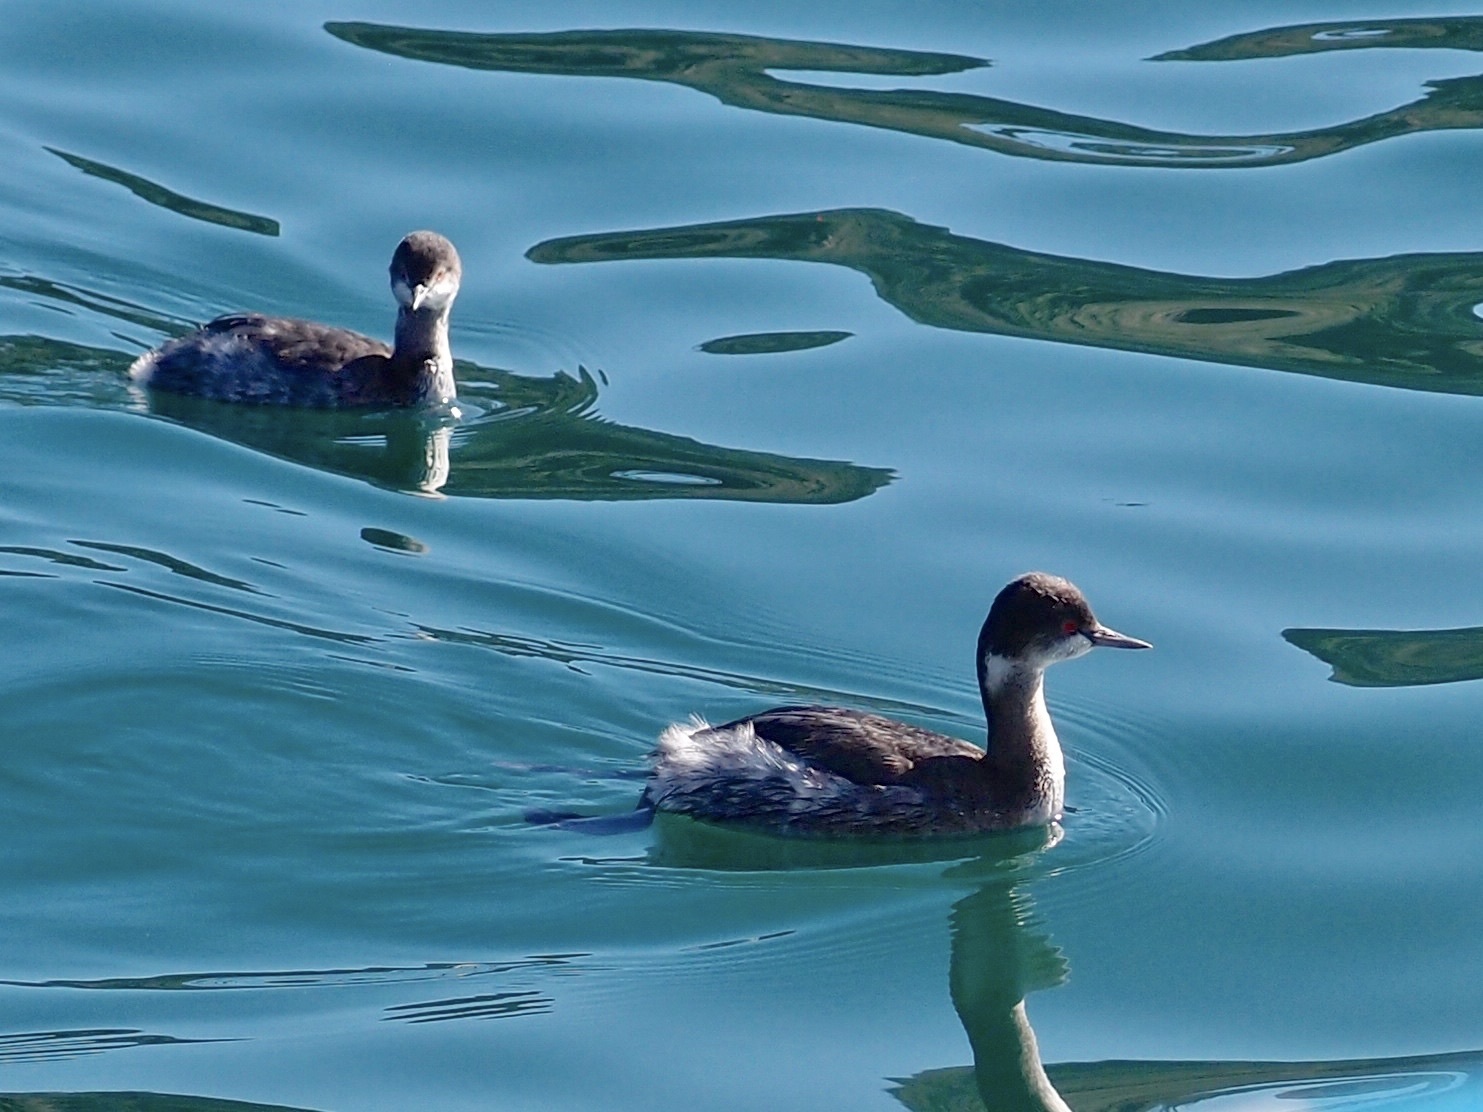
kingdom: Animalia
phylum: Chordata
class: Aves
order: Podicipediformes
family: Podicipedidae
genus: Podiceps
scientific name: Podiceps nigricollis
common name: Black-necked grebe
